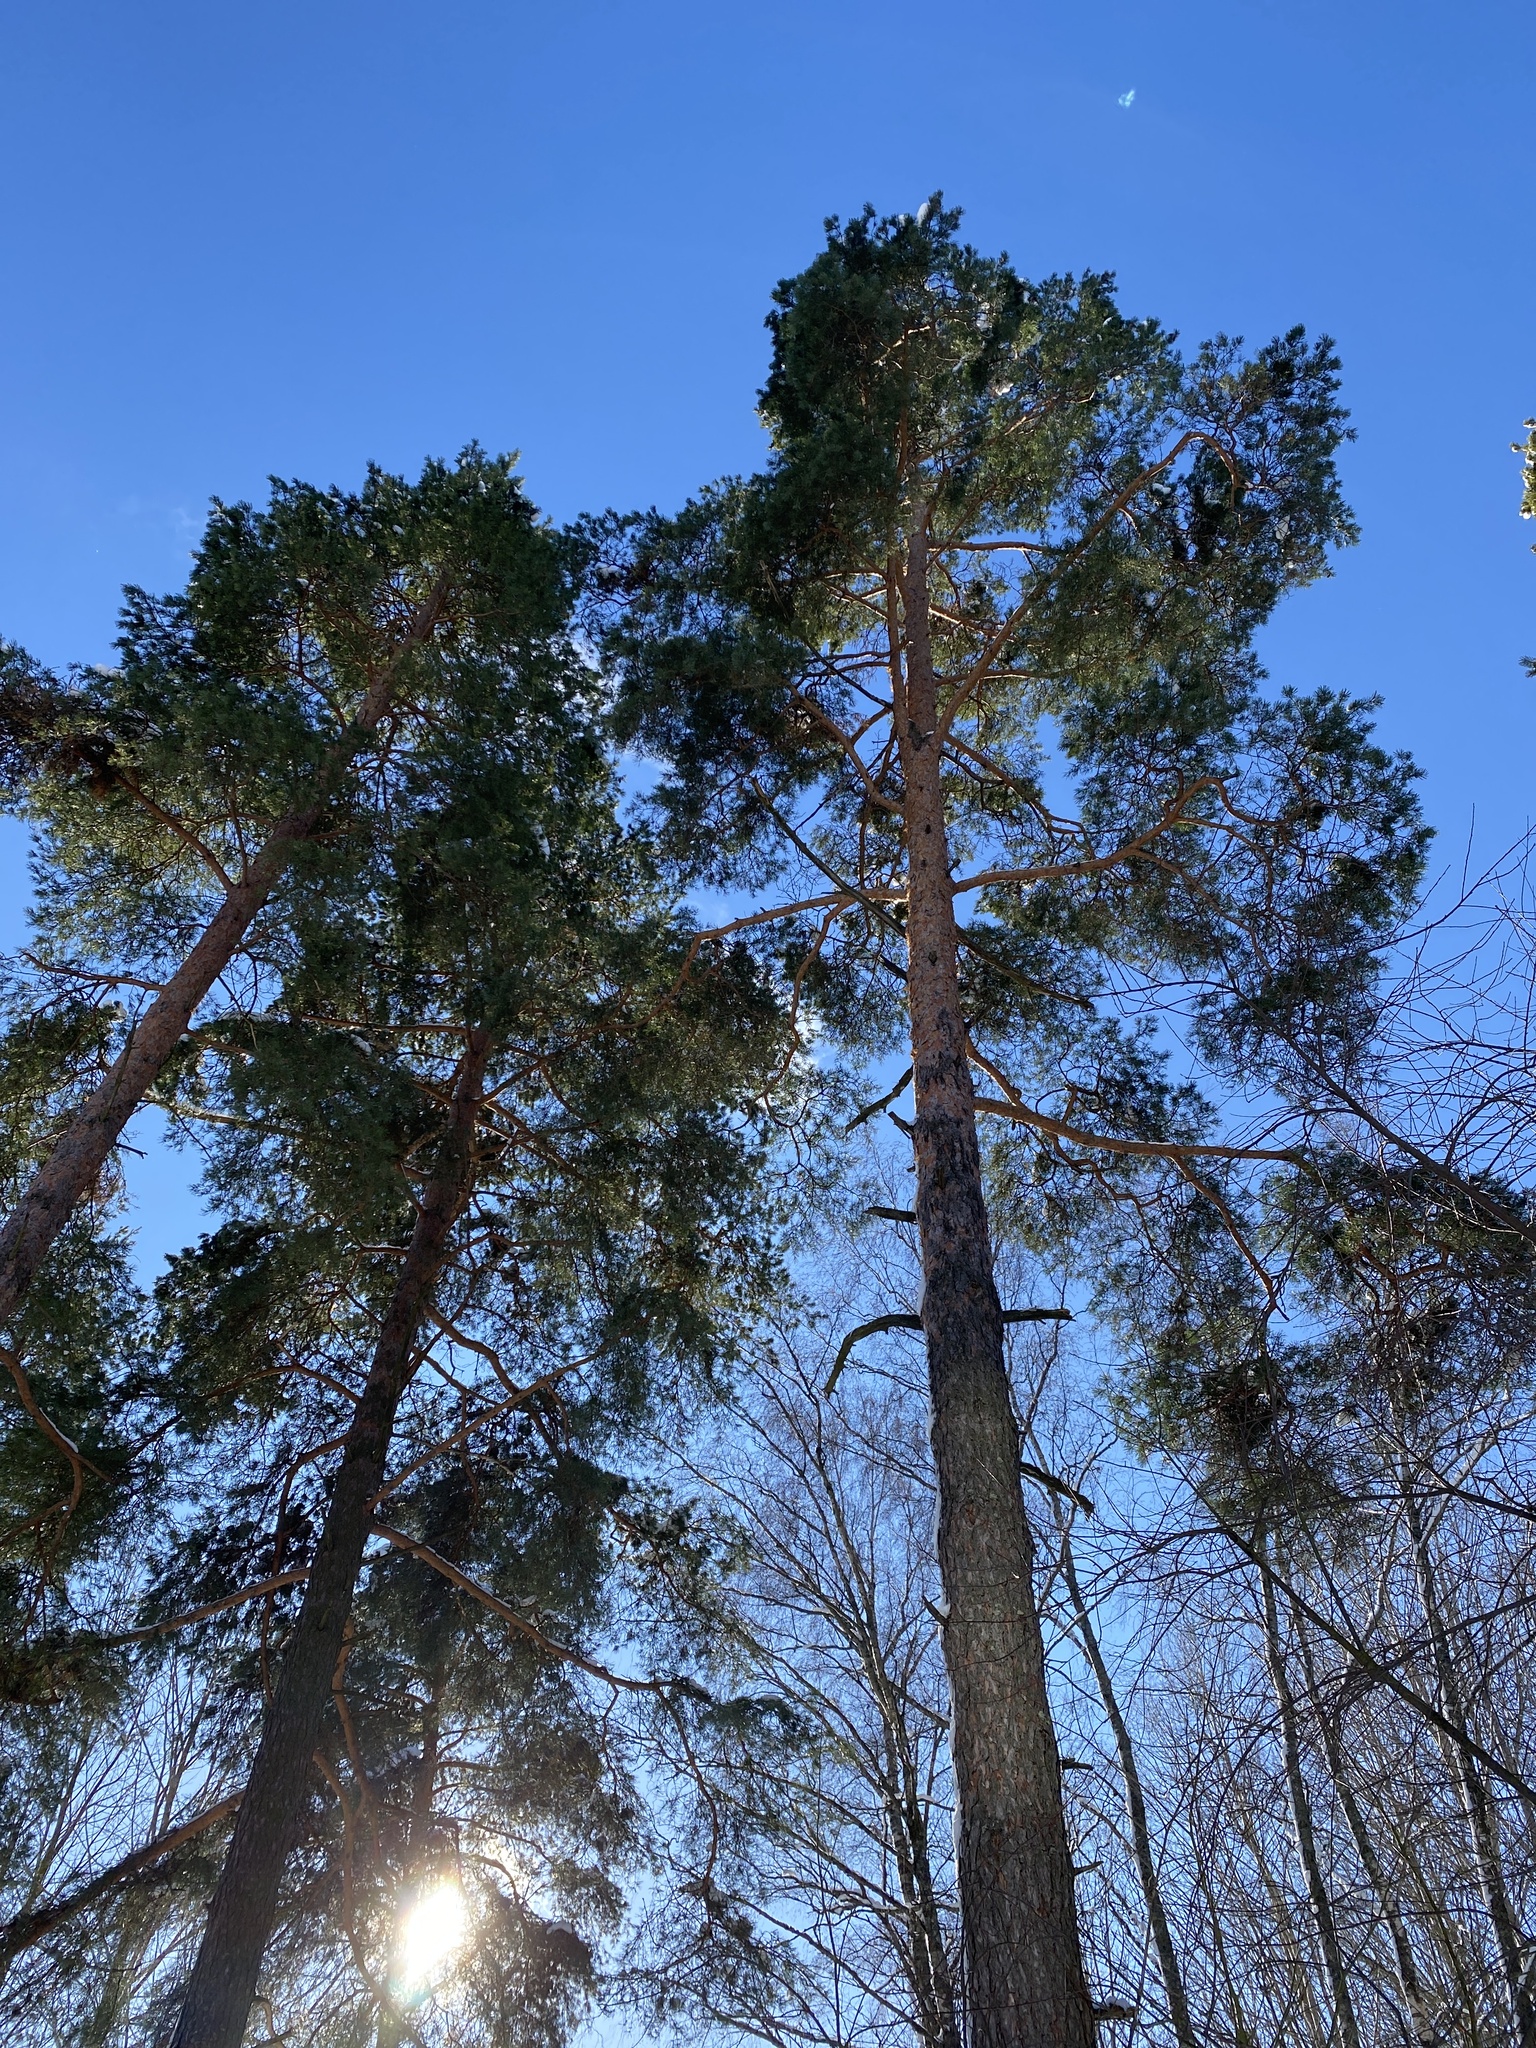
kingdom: Plantae
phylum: Tracheophyta
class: Pinopsida
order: Pinales
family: Pinaceae
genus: Pinus
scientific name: Pinus sylvestris
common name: Scots pine
